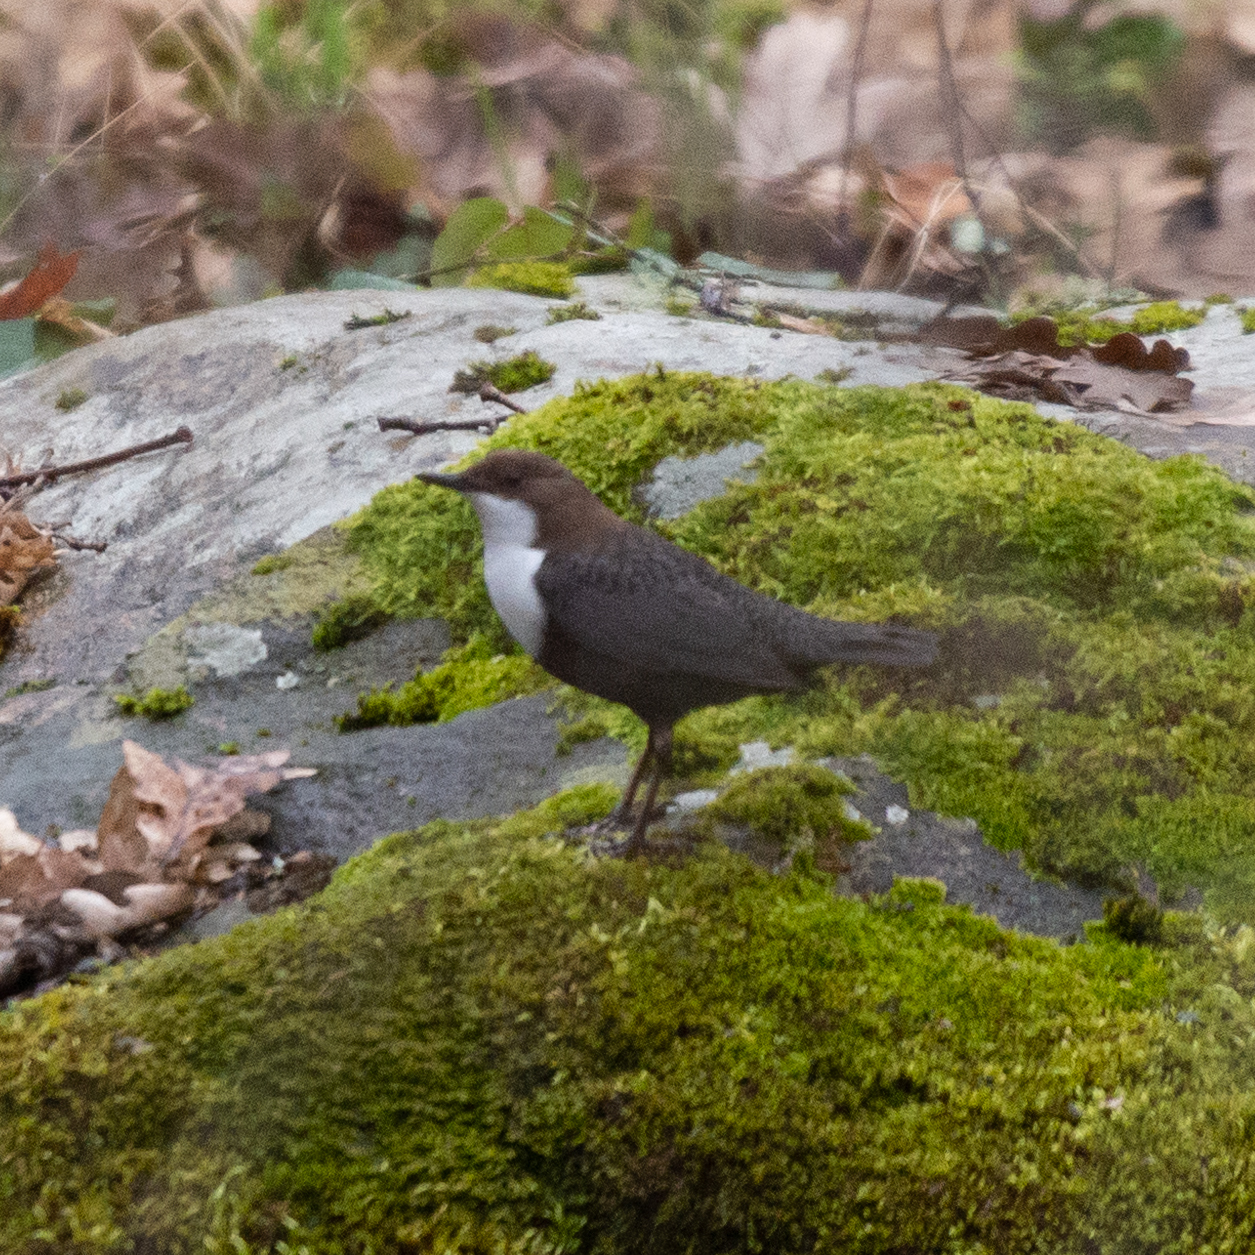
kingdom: Animalia
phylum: Chordata
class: Aves
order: Passeriformes
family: Cinclidae
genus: Cinclus
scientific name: Cinclus cinclus
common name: White-throated dipper
